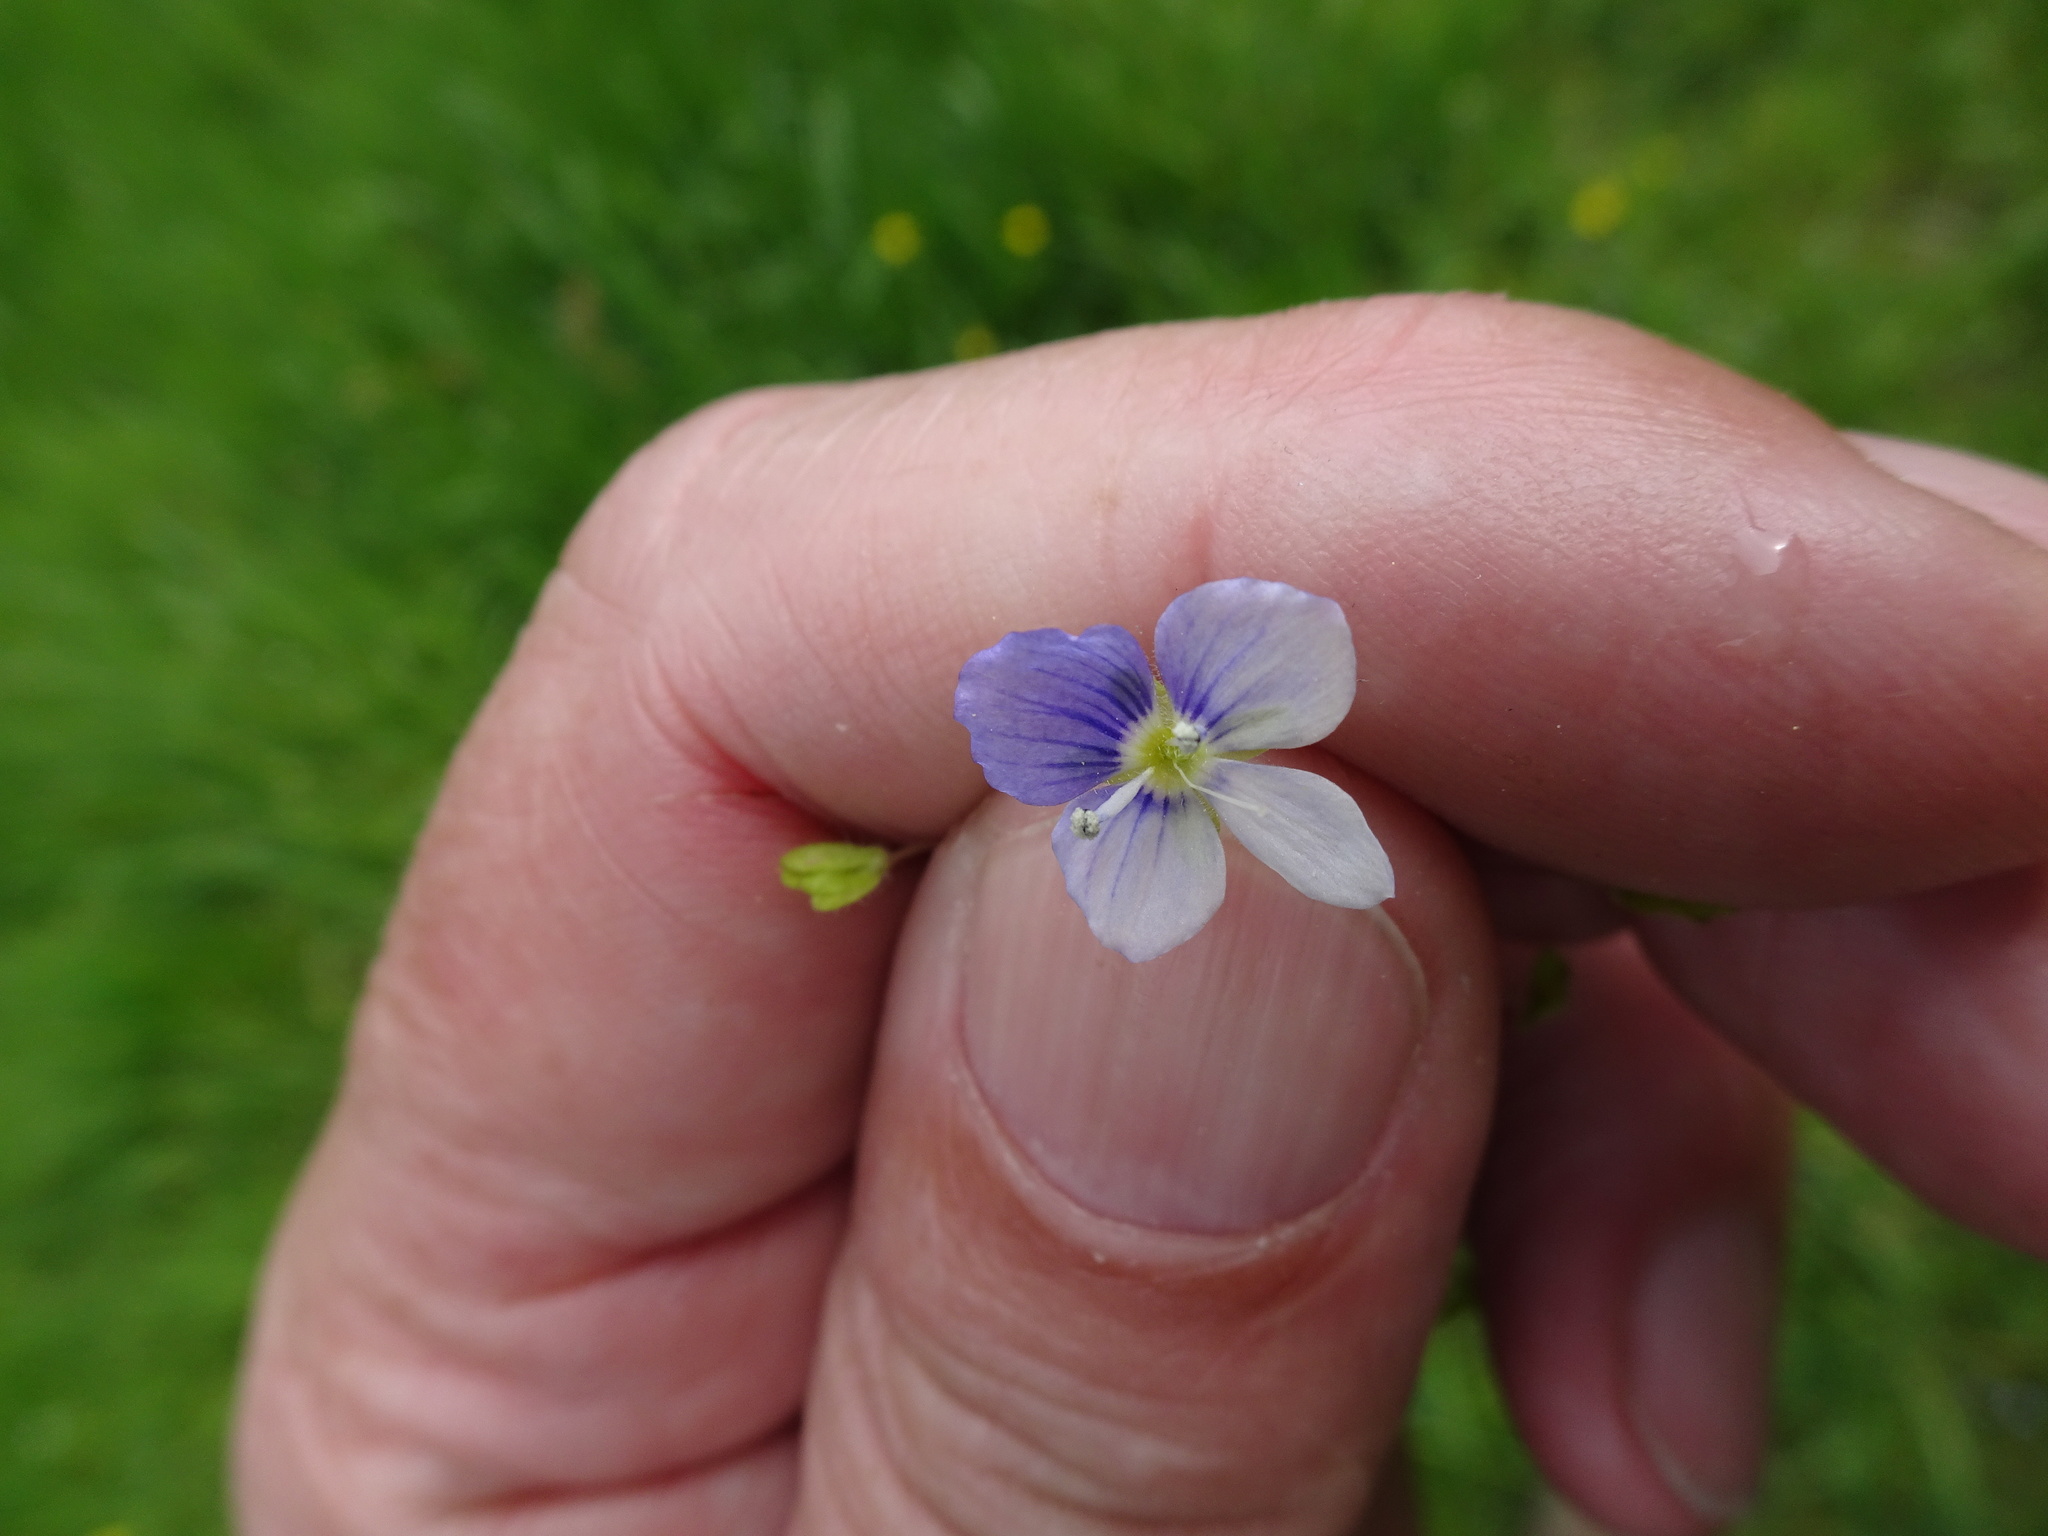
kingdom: Plantae
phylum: Tracheophyta
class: Magnoliopsida
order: Lamiales
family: Plantaginaceae
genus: Veronica
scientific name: Veronica filiformis
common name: Slender speedwell
